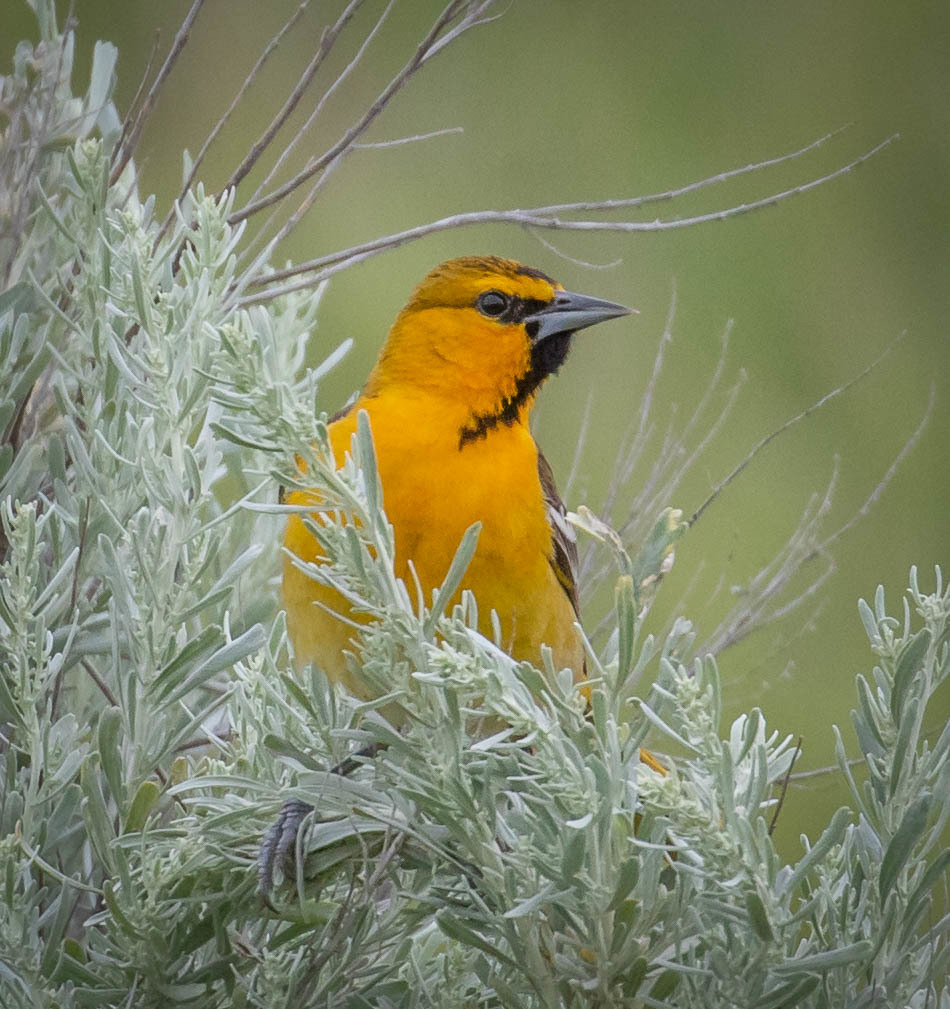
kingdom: Animalia
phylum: Chordata
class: Aves
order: Passeriformes
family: Icteridae
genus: Icterus
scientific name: Icterus bullockii
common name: Bullock's oriole
